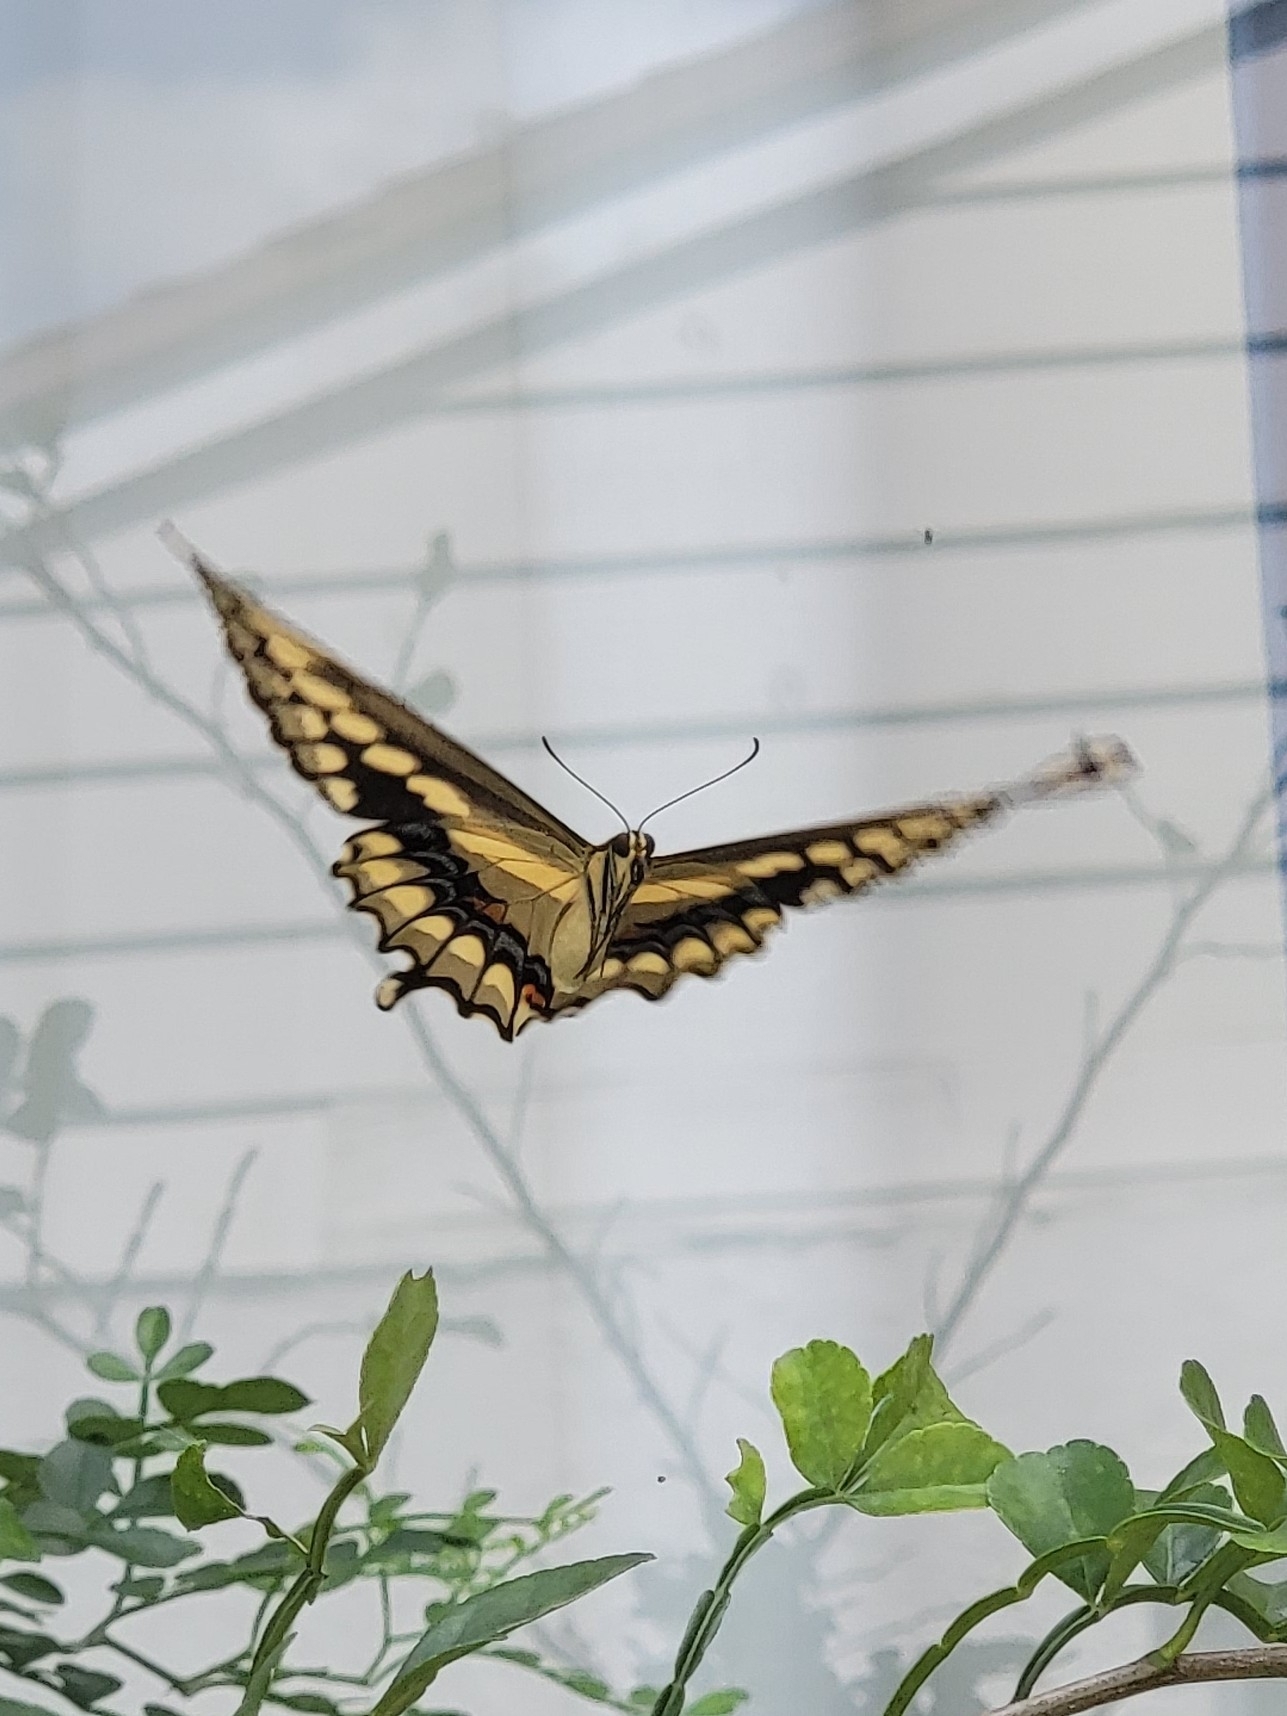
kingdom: Animalia
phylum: Arthropoda
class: Insecta
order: Lepidoptera
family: Papilionidae
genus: Papilio
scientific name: Papilio cresphontes
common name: Giant swallowtail
